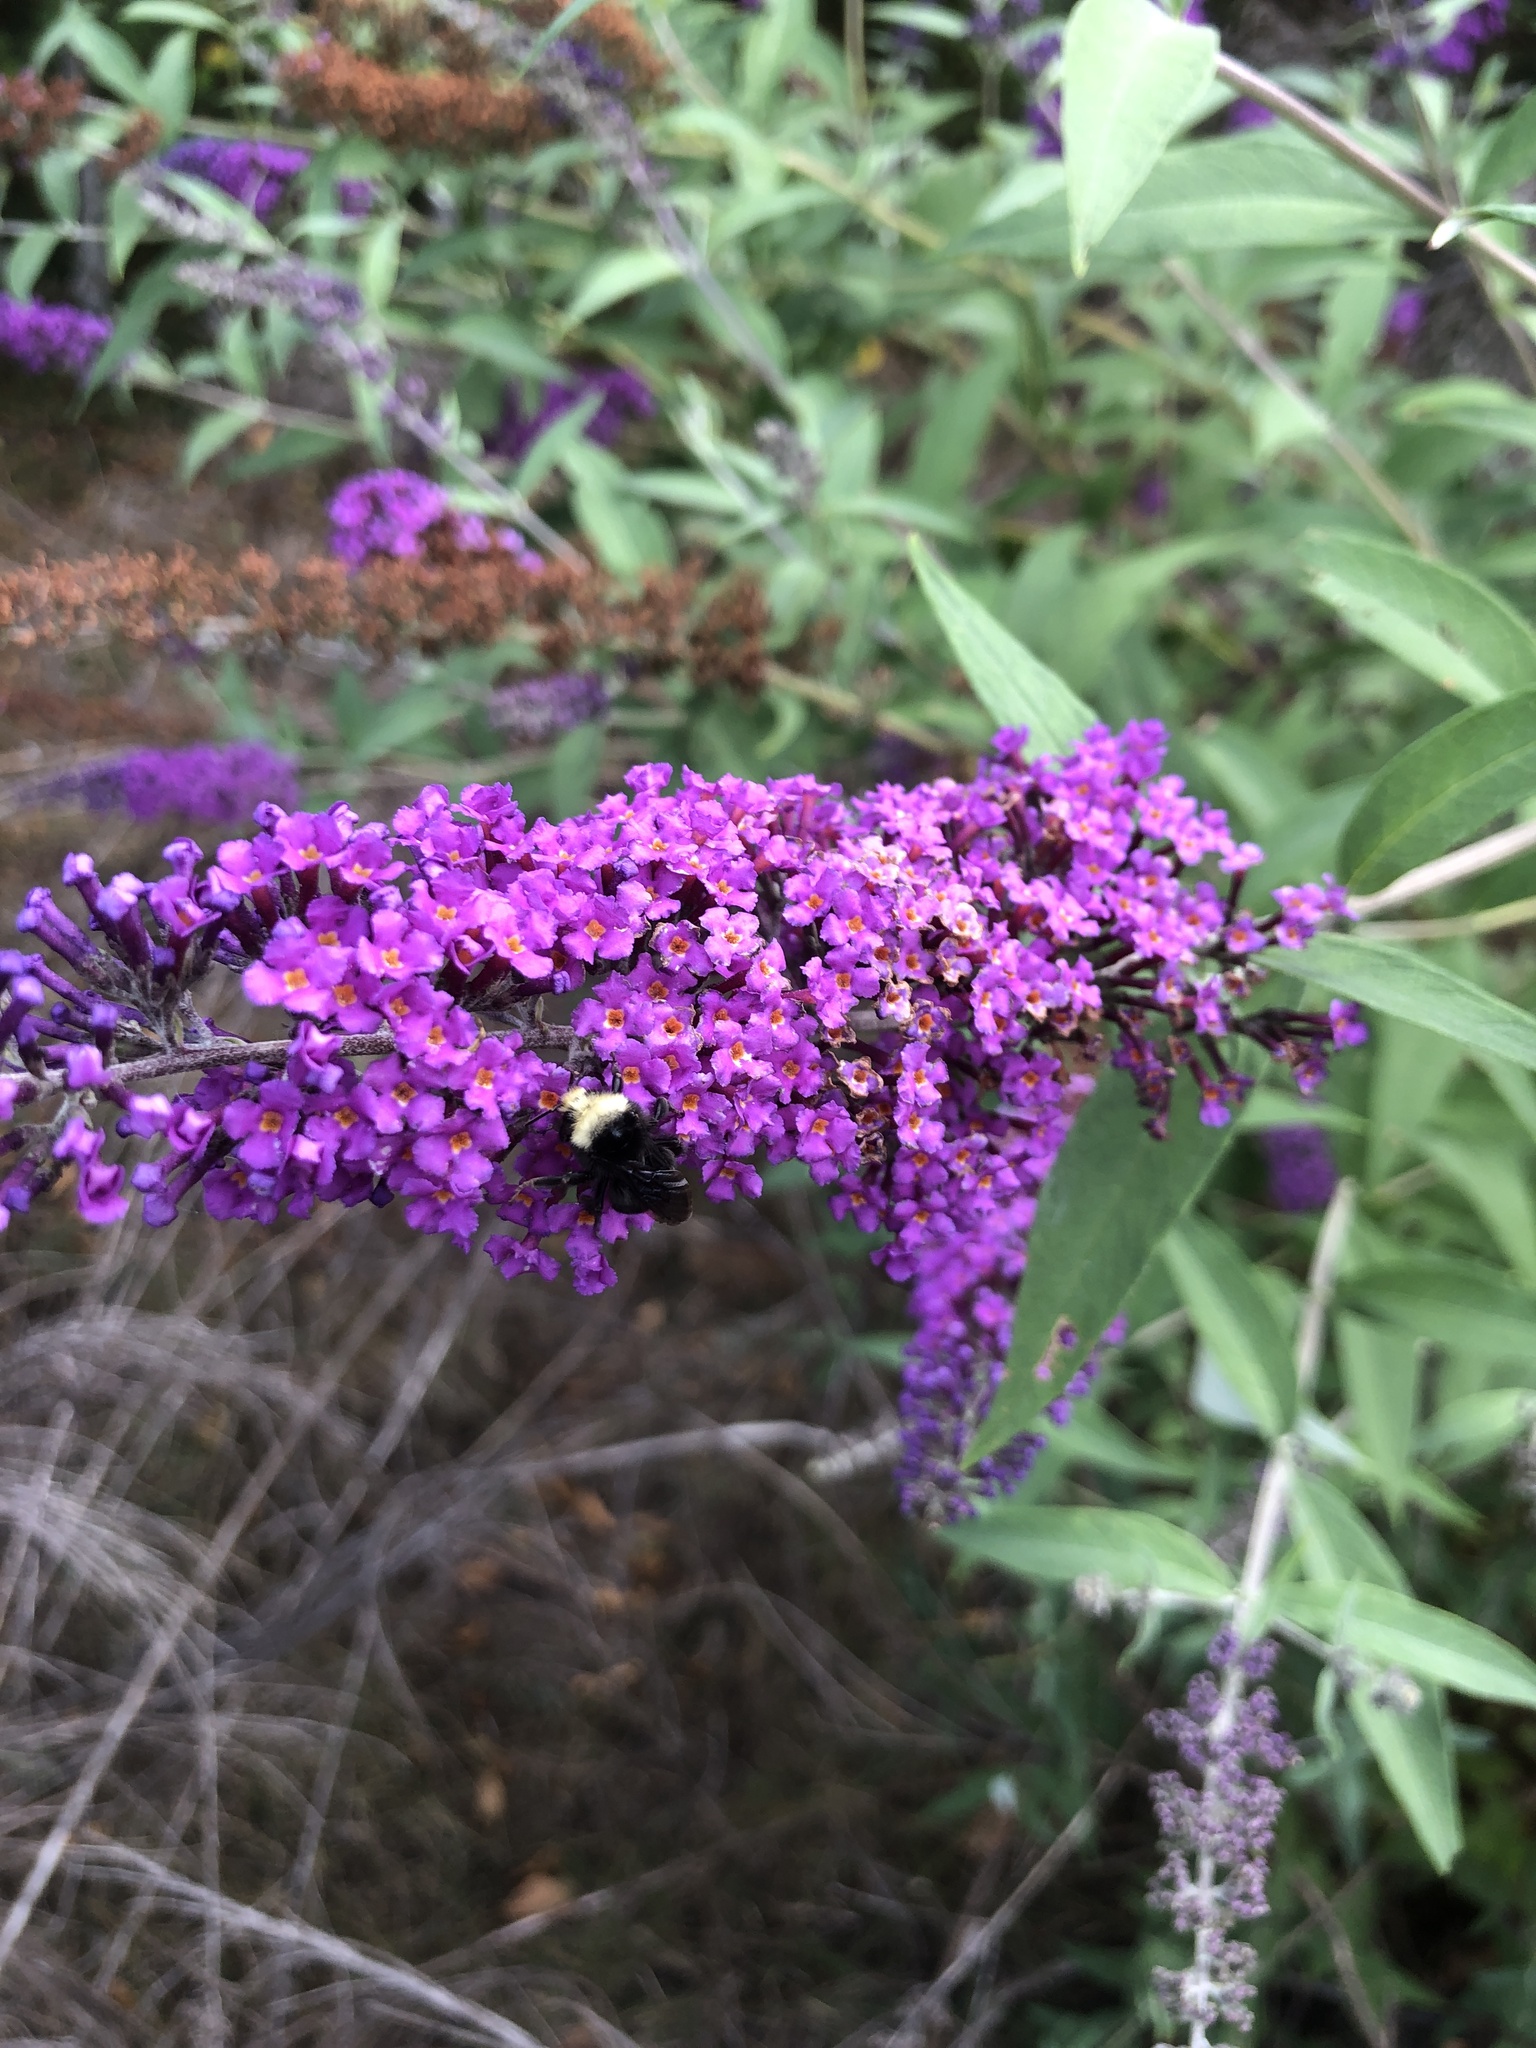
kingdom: Animalia
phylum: Arthropoda
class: Insecta
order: Hymenoptera
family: Apidae
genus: Bombus
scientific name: Bombus vosnesenskii
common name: Vosnesensky bumble bee
